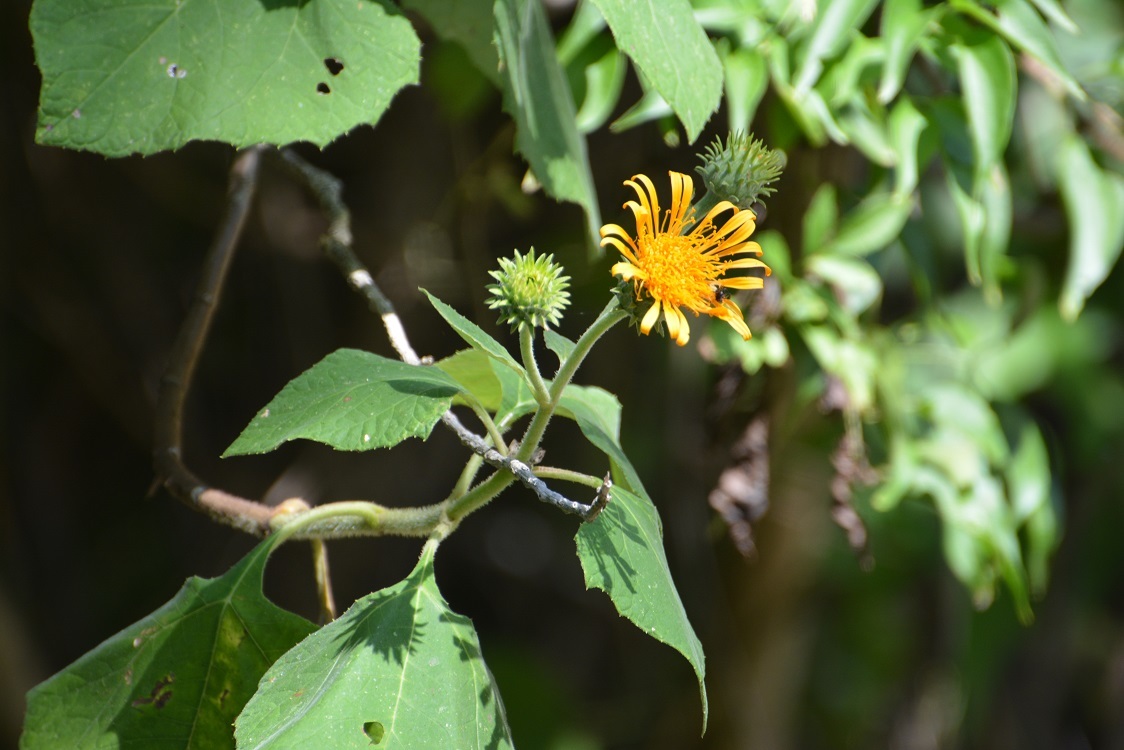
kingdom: Plantae
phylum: Tracheophyta
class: Magnoliopsida
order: Asterales
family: Asteraceae
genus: Sinclairia
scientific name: Sinclairia andrieuxii
